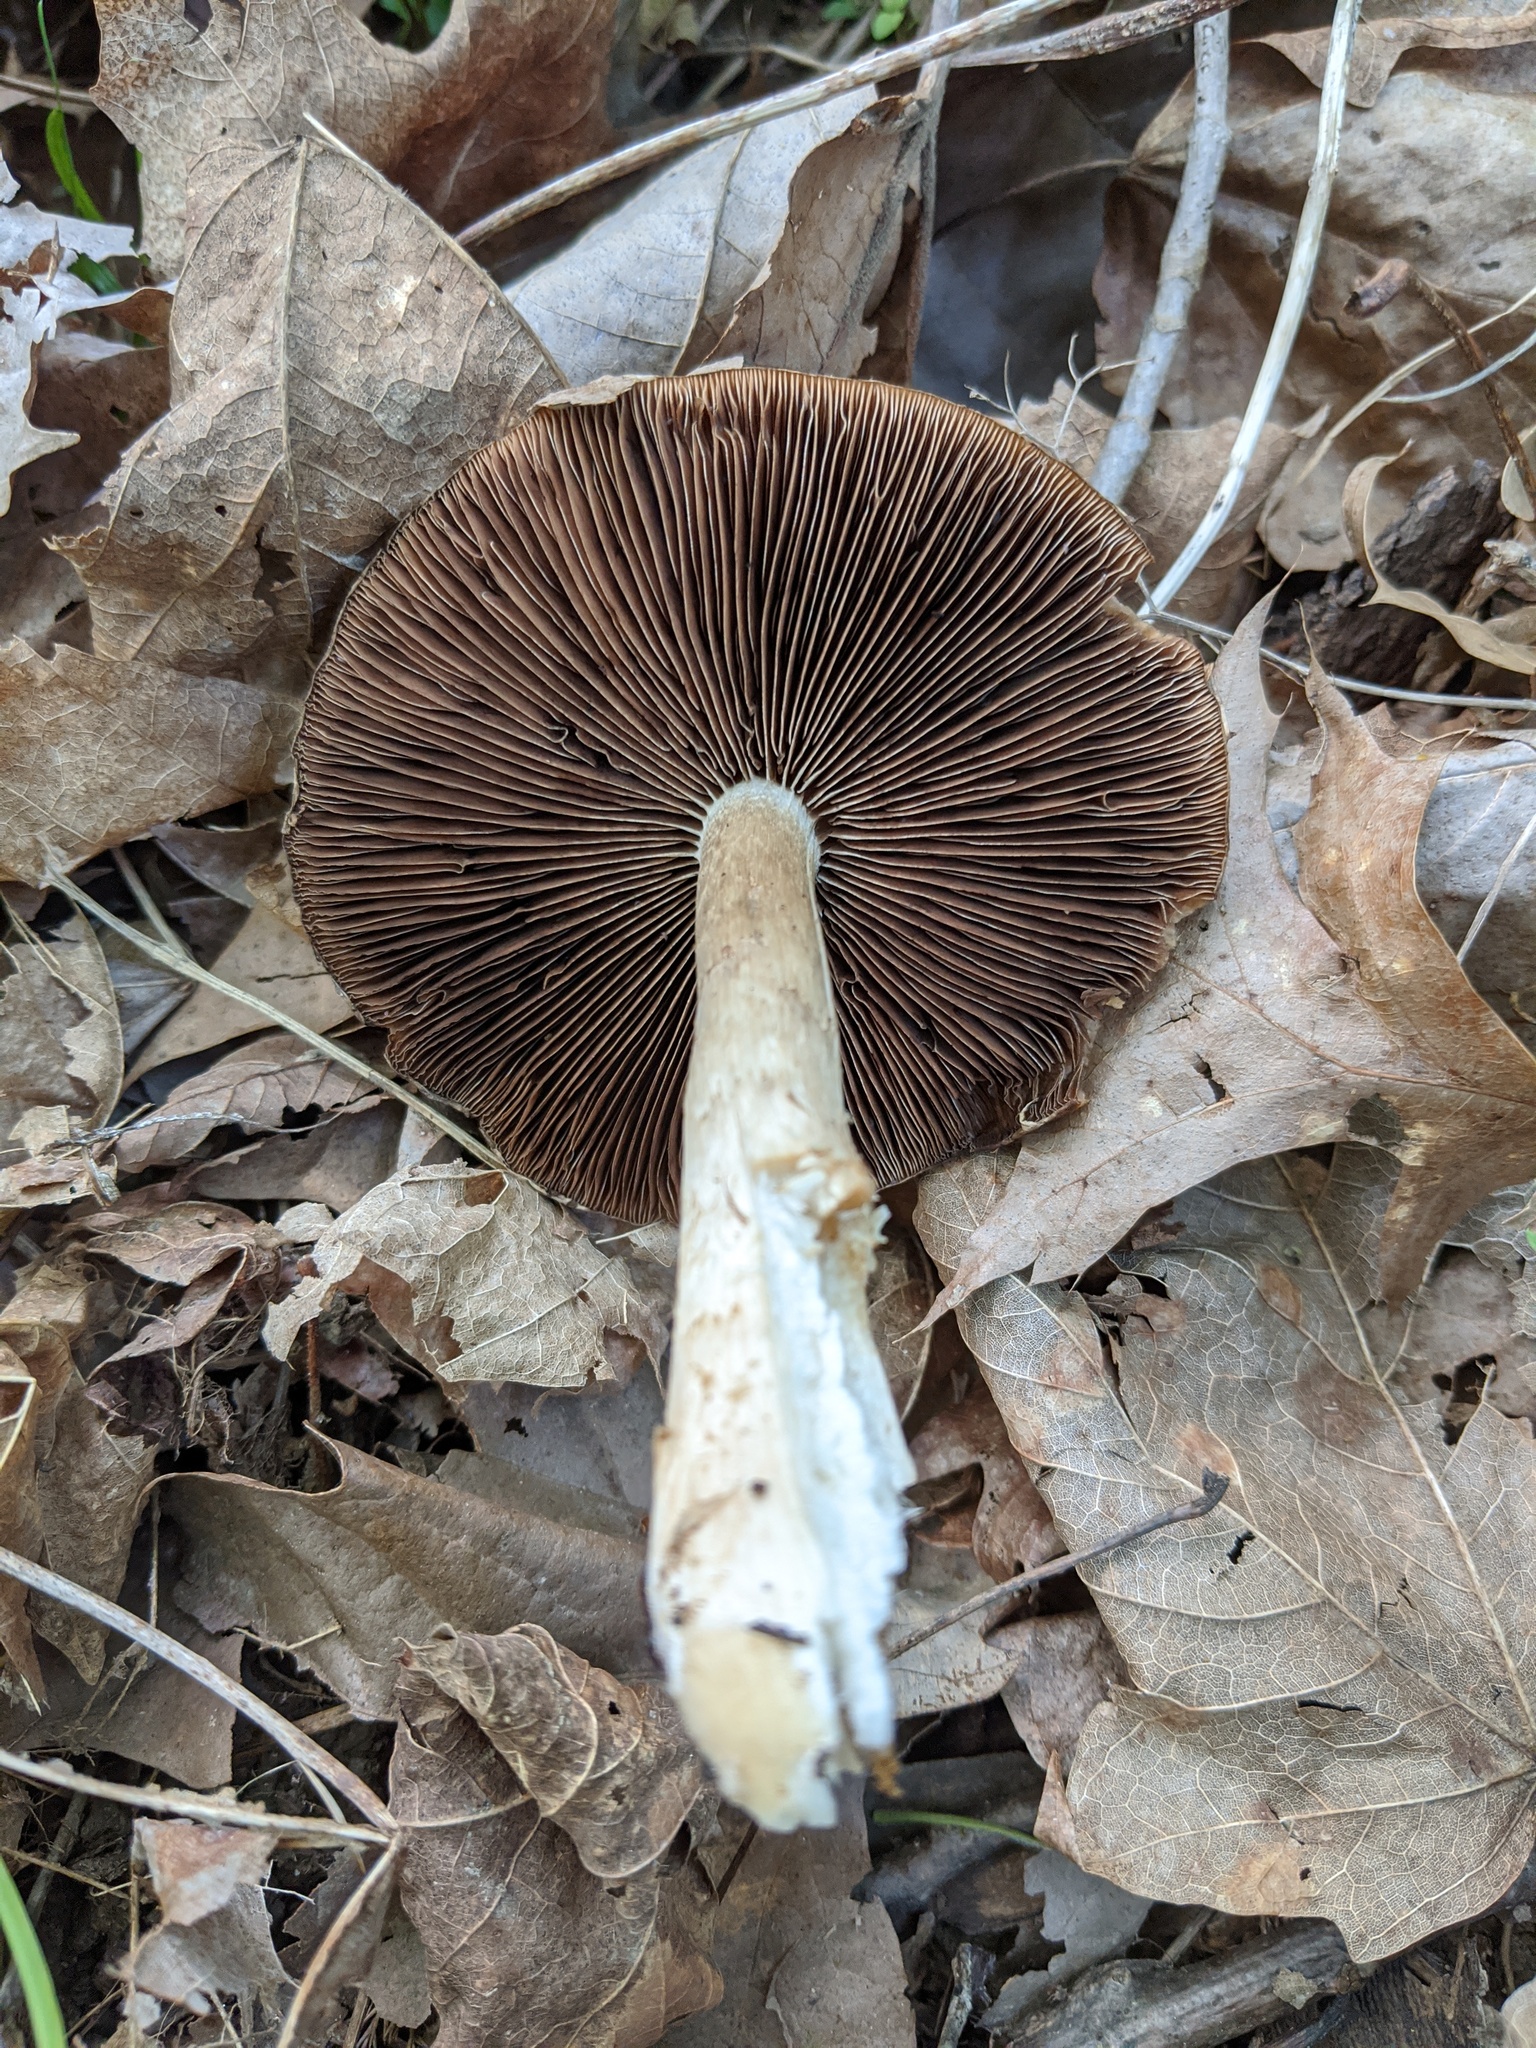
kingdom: Fungi
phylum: Basidiomycota
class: Agaricomycetes
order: Agaricales
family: Psathyrellaceae
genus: Typhrasa
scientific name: Typhrasa gossypina
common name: Wrinkled psathyrella
